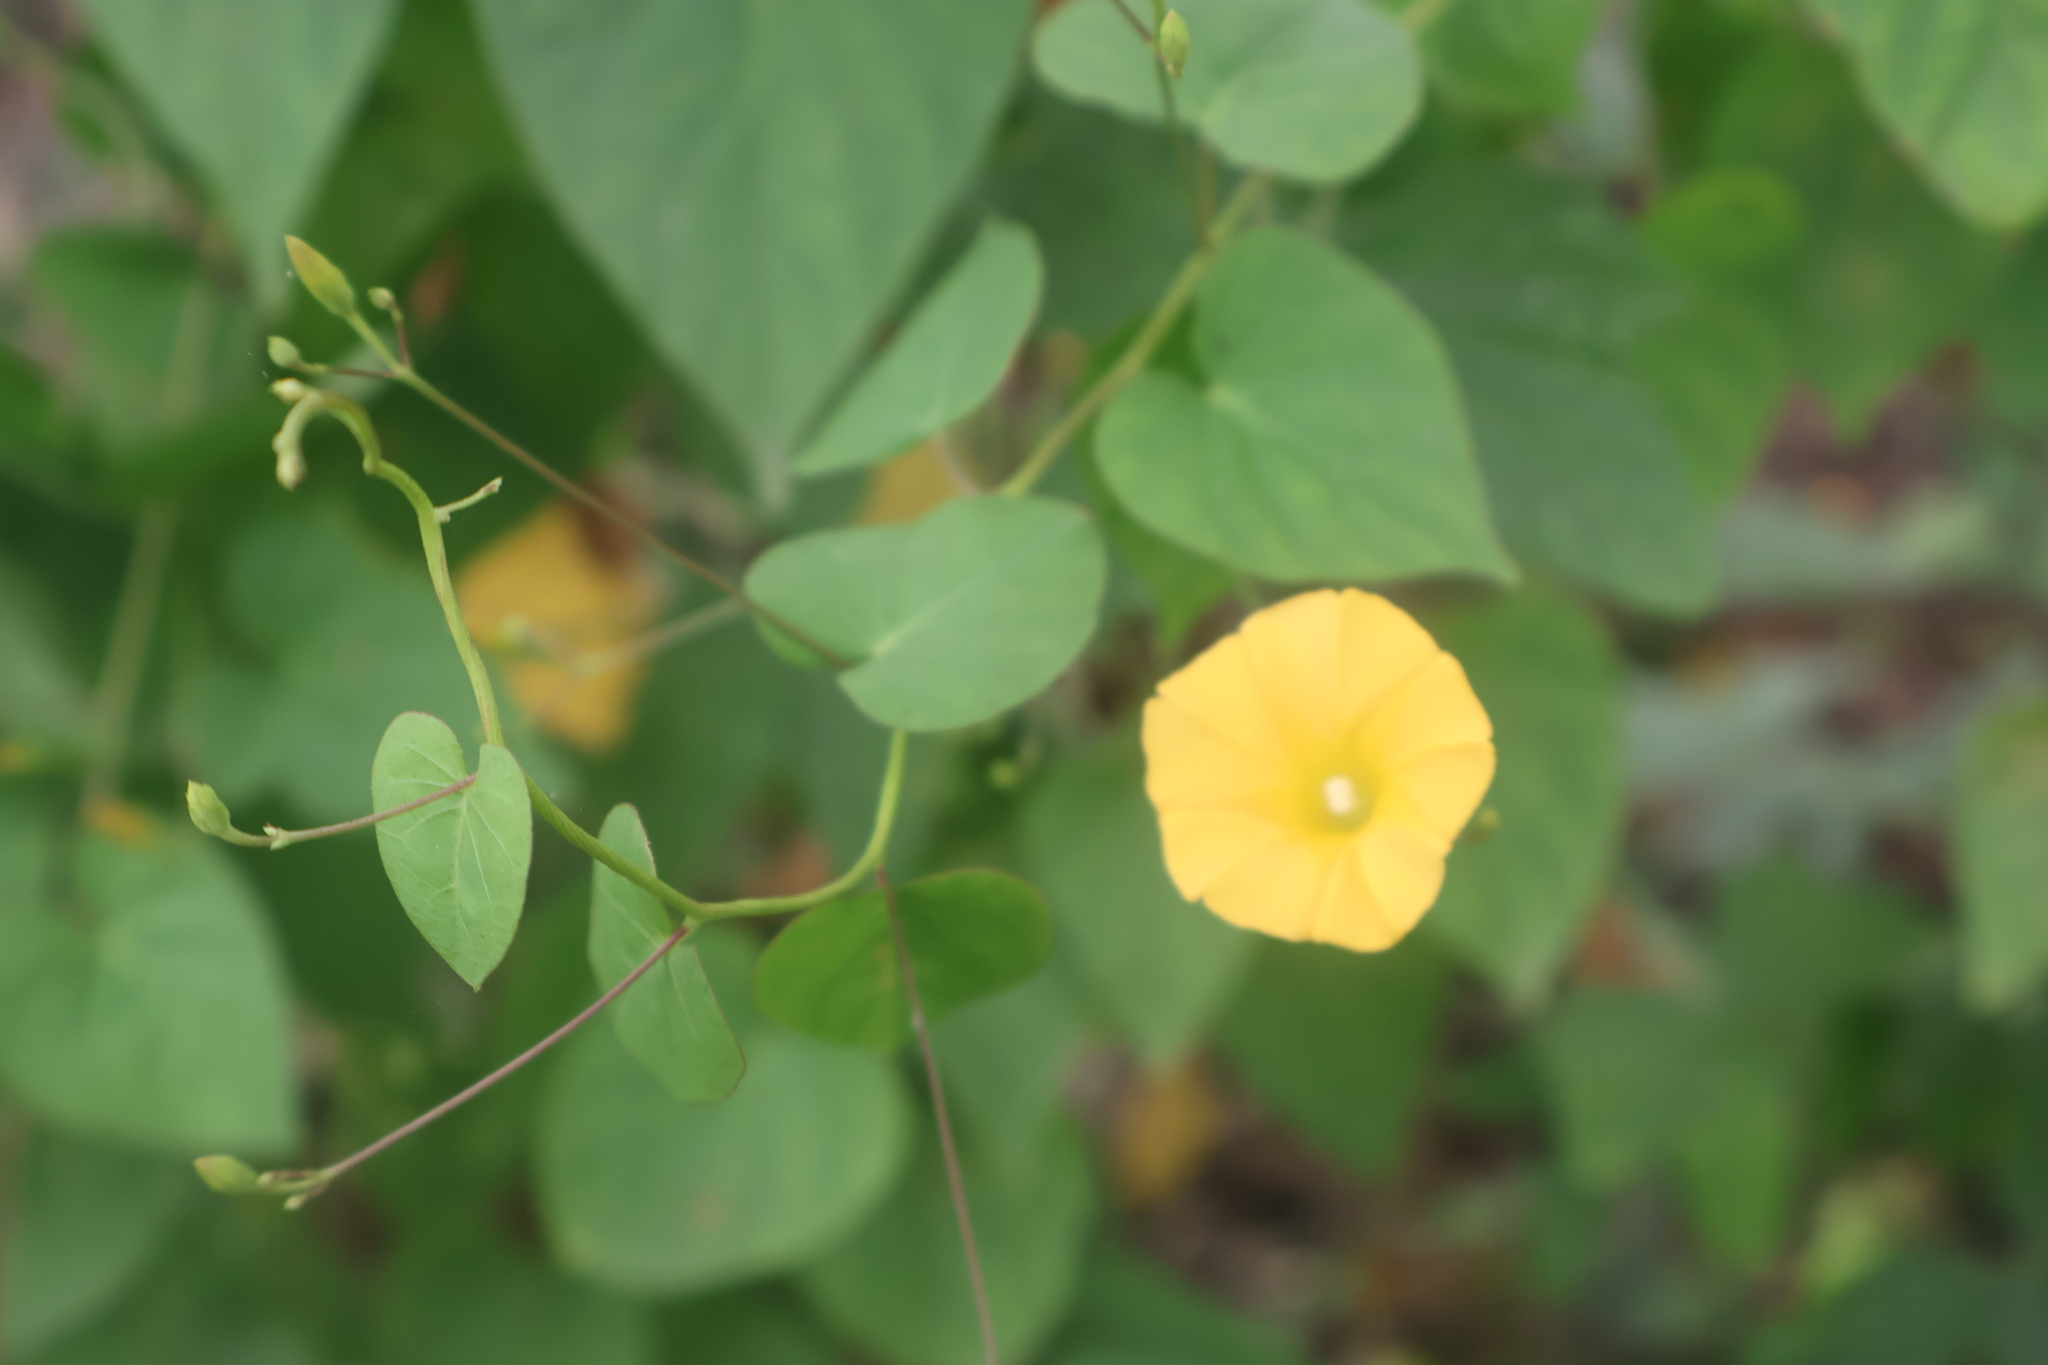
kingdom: Plantae
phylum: Tracheophyta
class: Magnoliopsida
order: Solanales
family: Convolvulaceae
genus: Ipomoea
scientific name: Ipomoea microsepala
